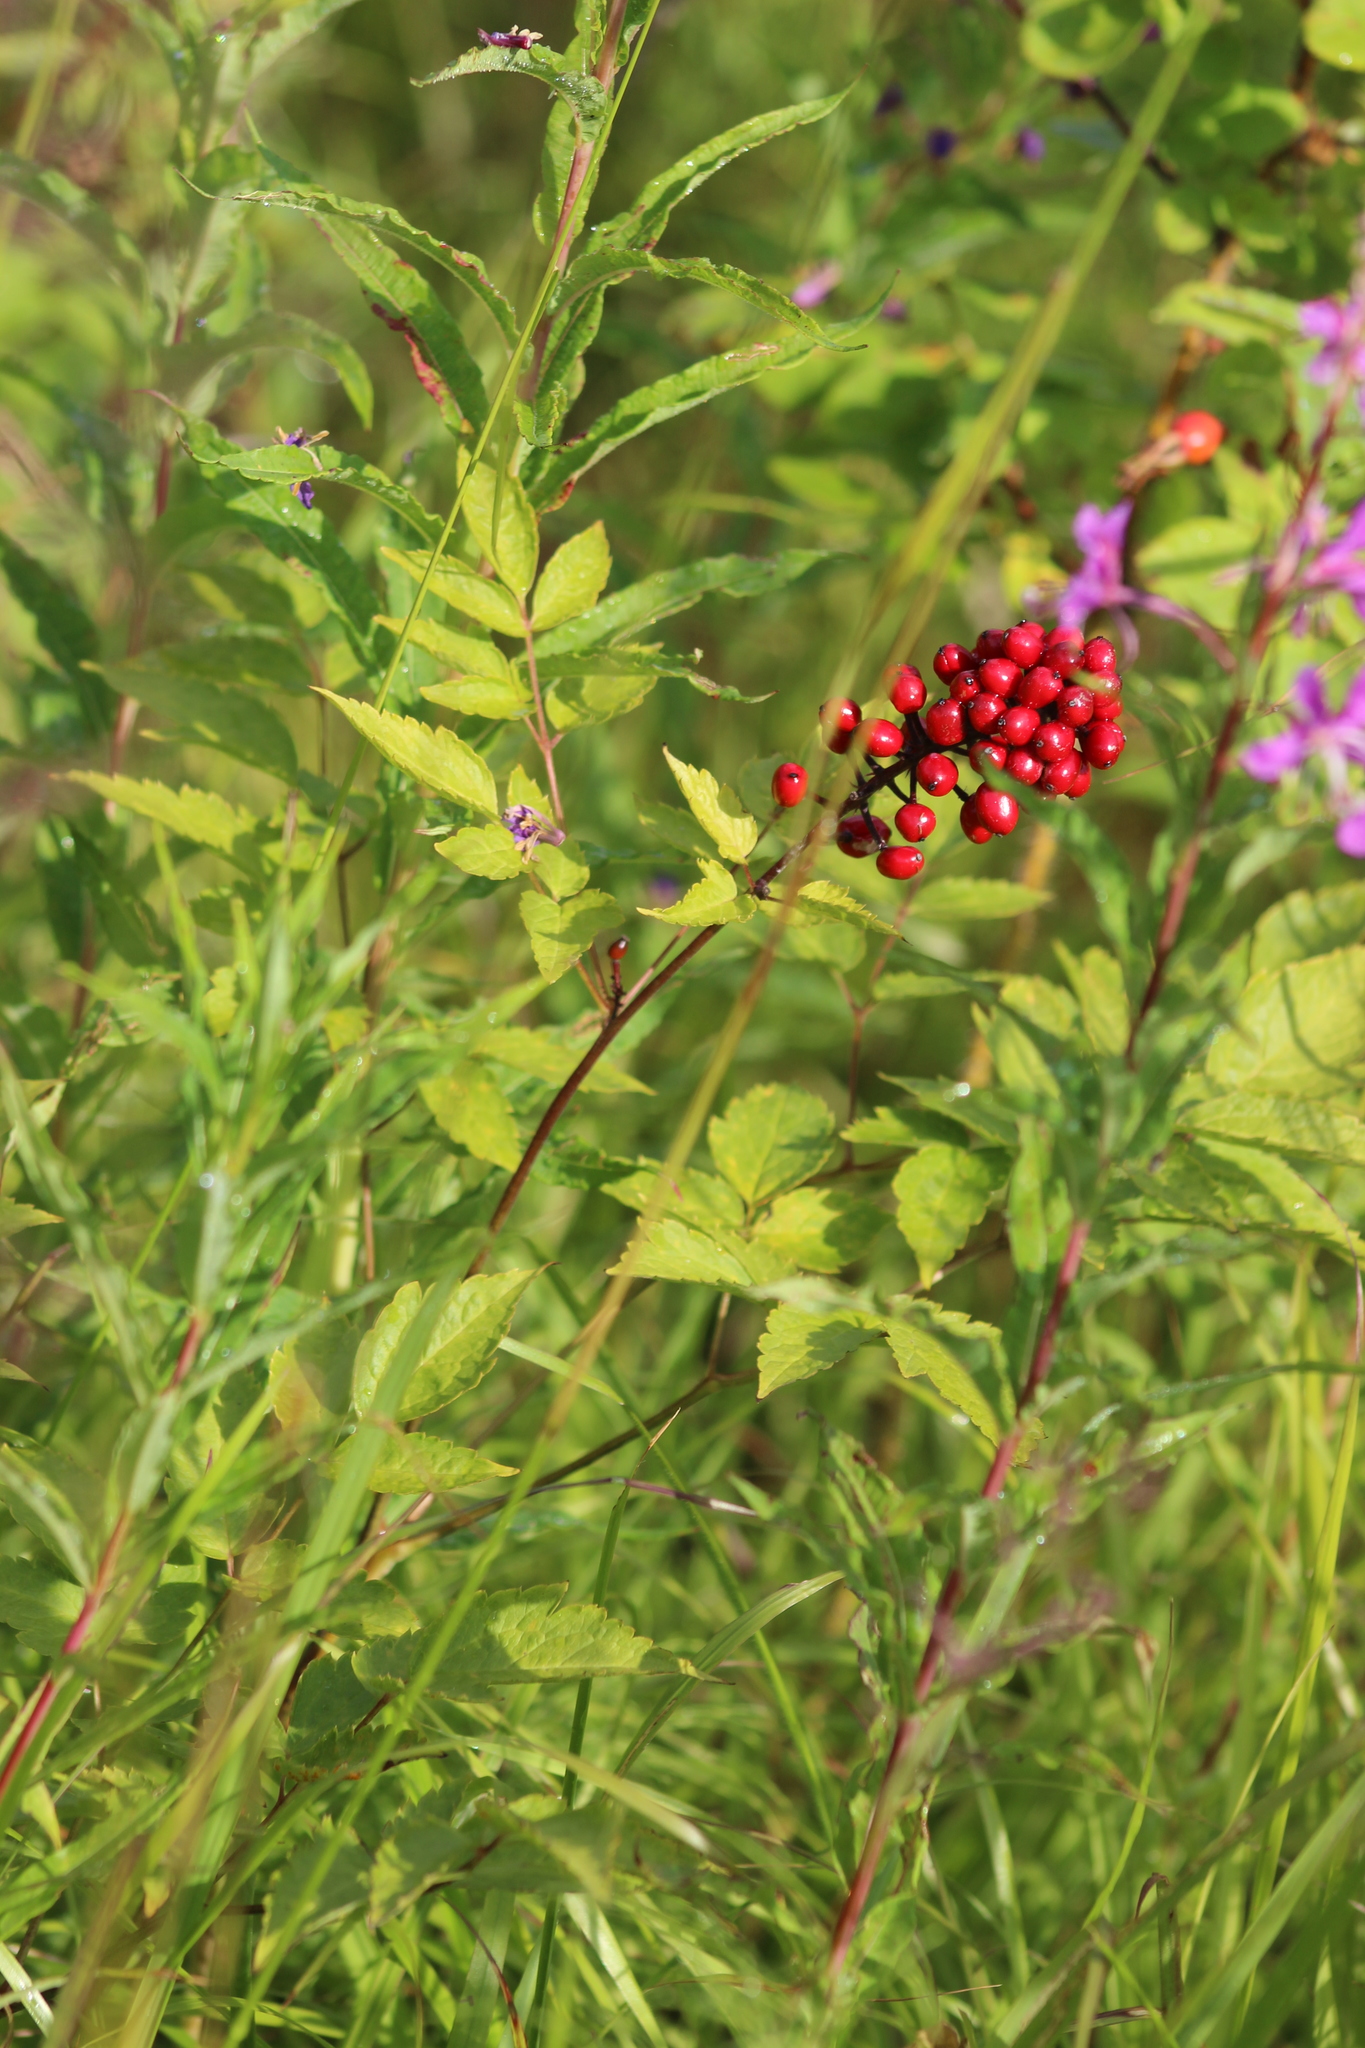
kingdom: Plantae
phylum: Tracheophyta
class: Magnoliopsida
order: Ranunculales
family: Ranunculaceae
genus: Actaea
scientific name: Actaea erythrocarpa
